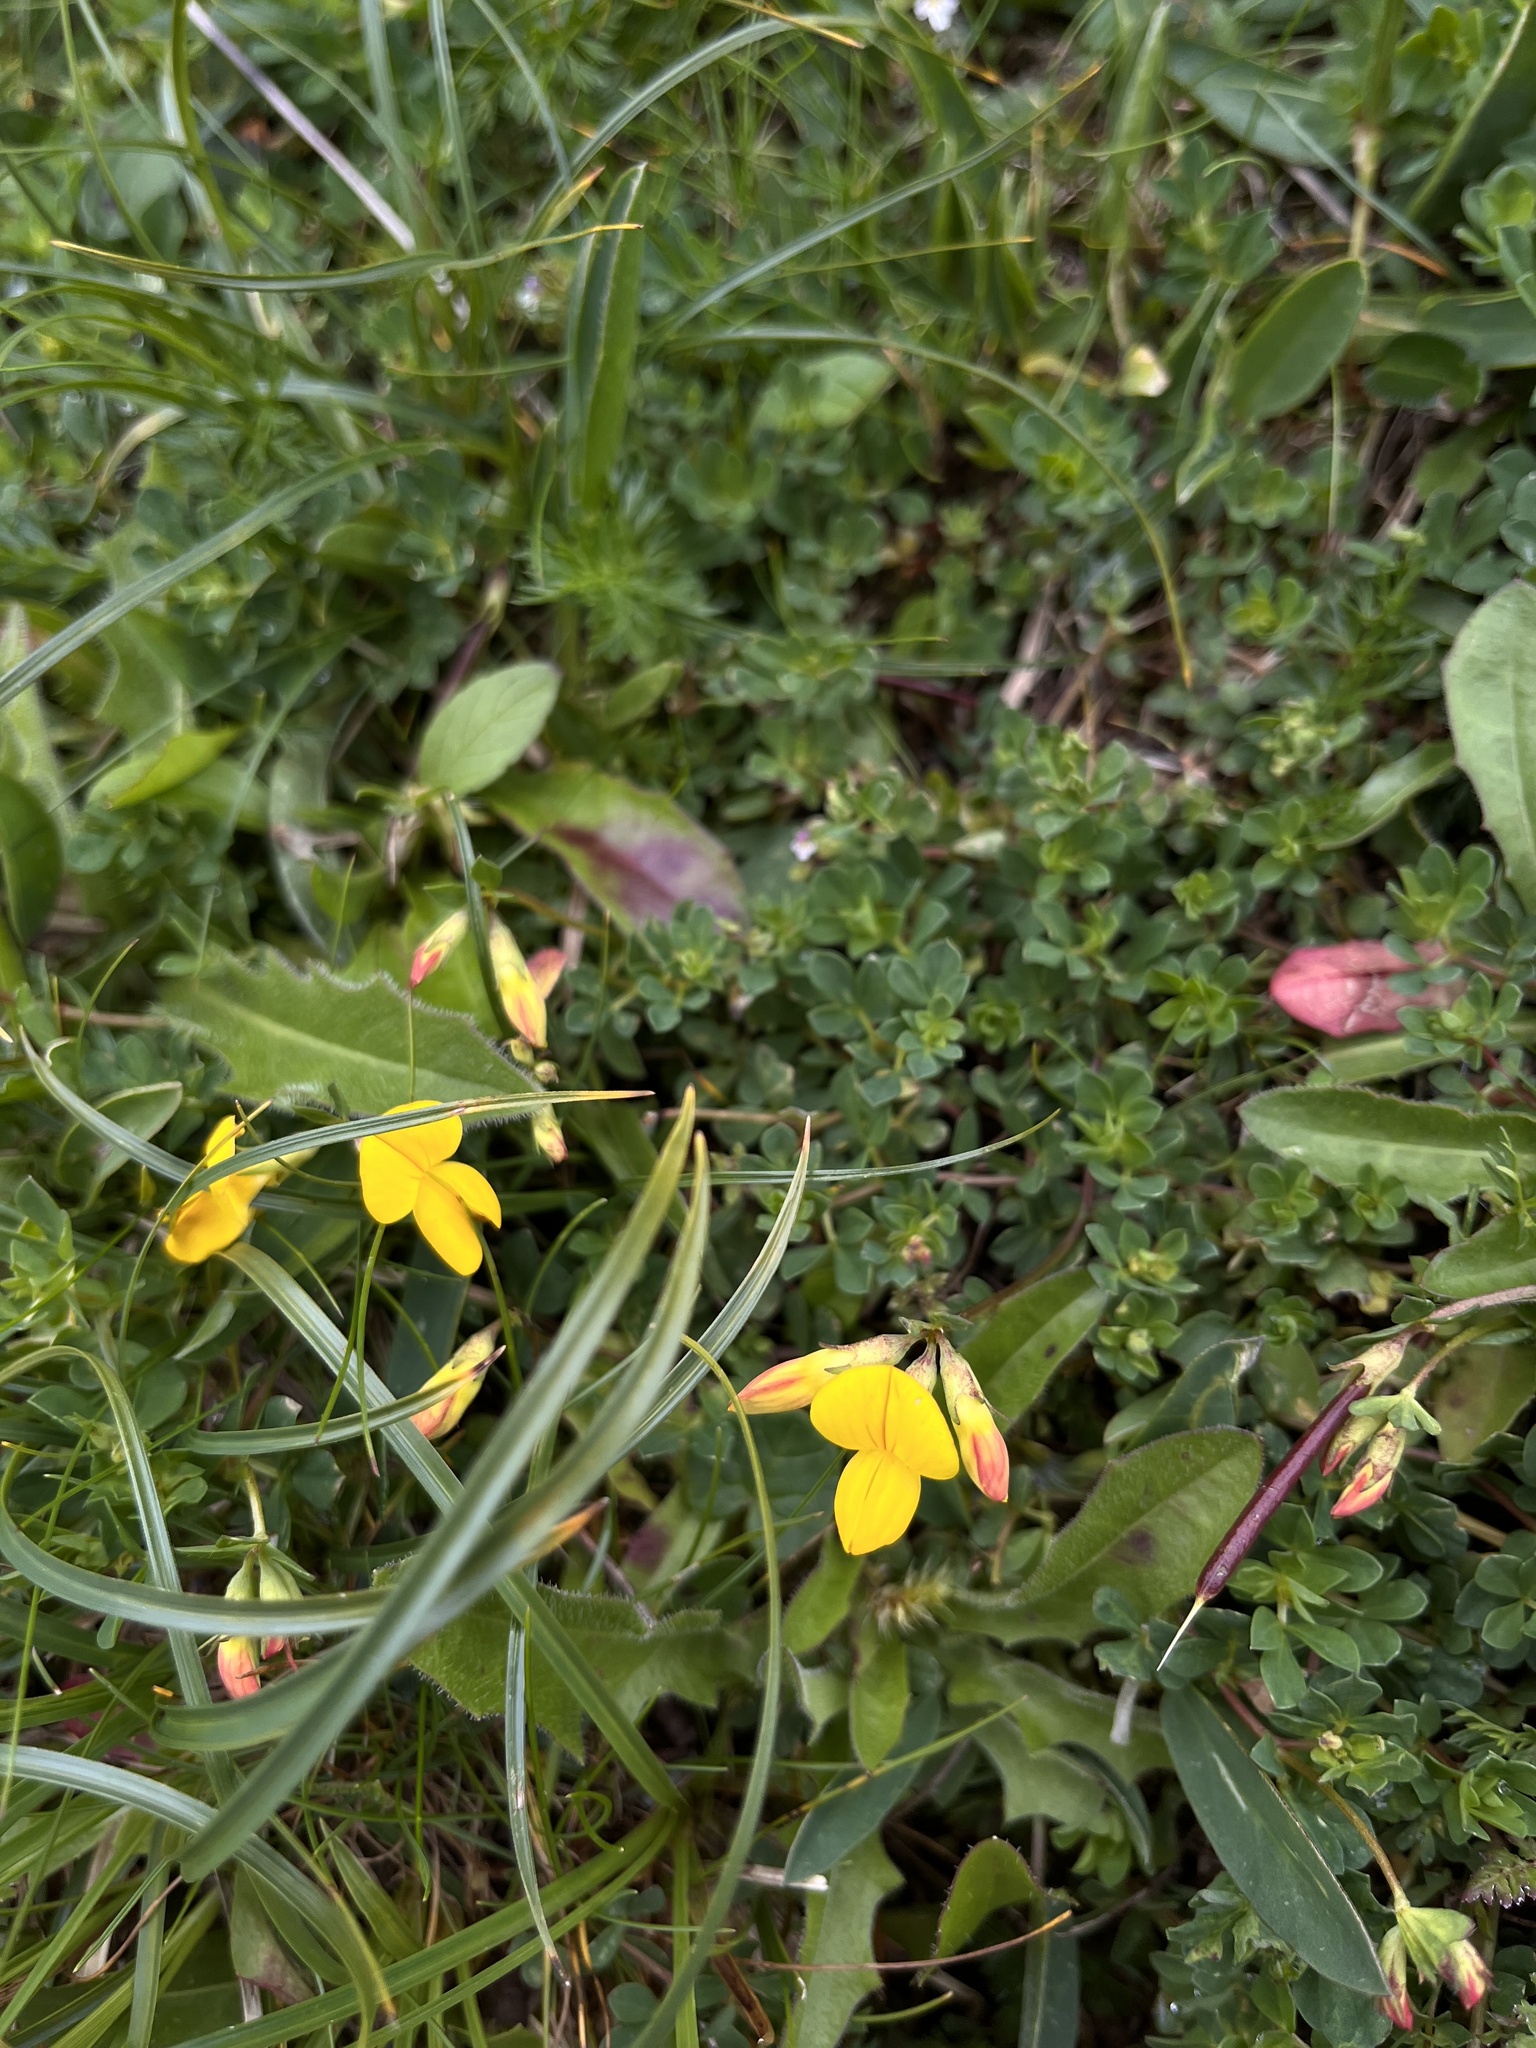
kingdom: Plantae
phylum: Tracheophyta
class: Magnoliopsida
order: Fabales
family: Fabaceae
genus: Lotus
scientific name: Lotus corniculatus
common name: Common bird's-foot-trefoil
